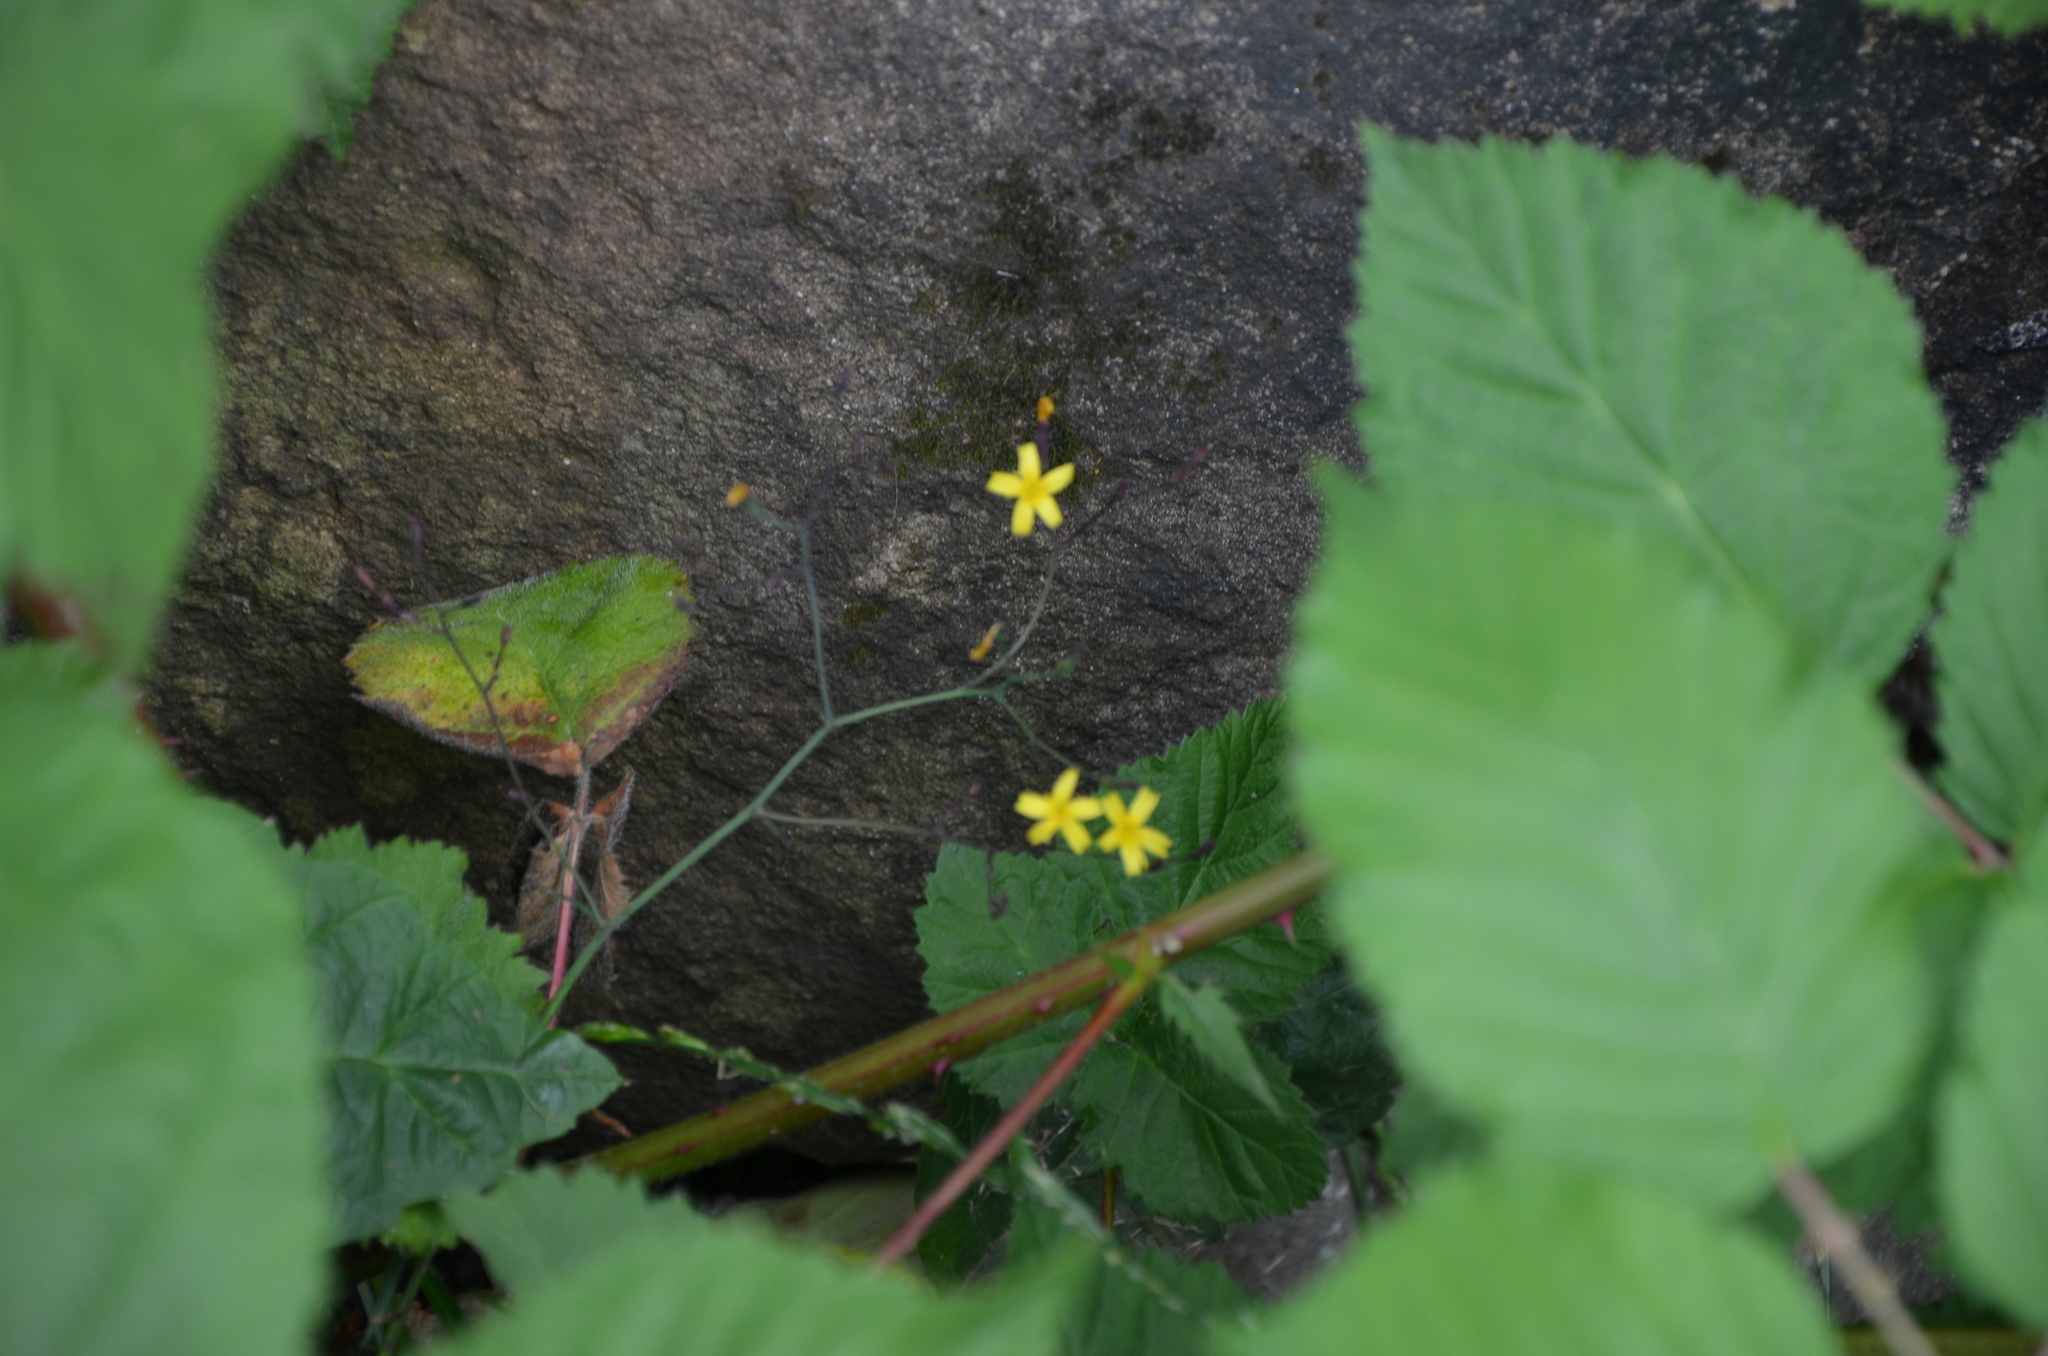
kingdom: Plantae
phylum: Tracheophyta
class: Magnoliopsida
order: Asterales
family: Asteraceae
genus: Mycelis
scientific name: Mycelis muralis
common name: Wall lettuce
